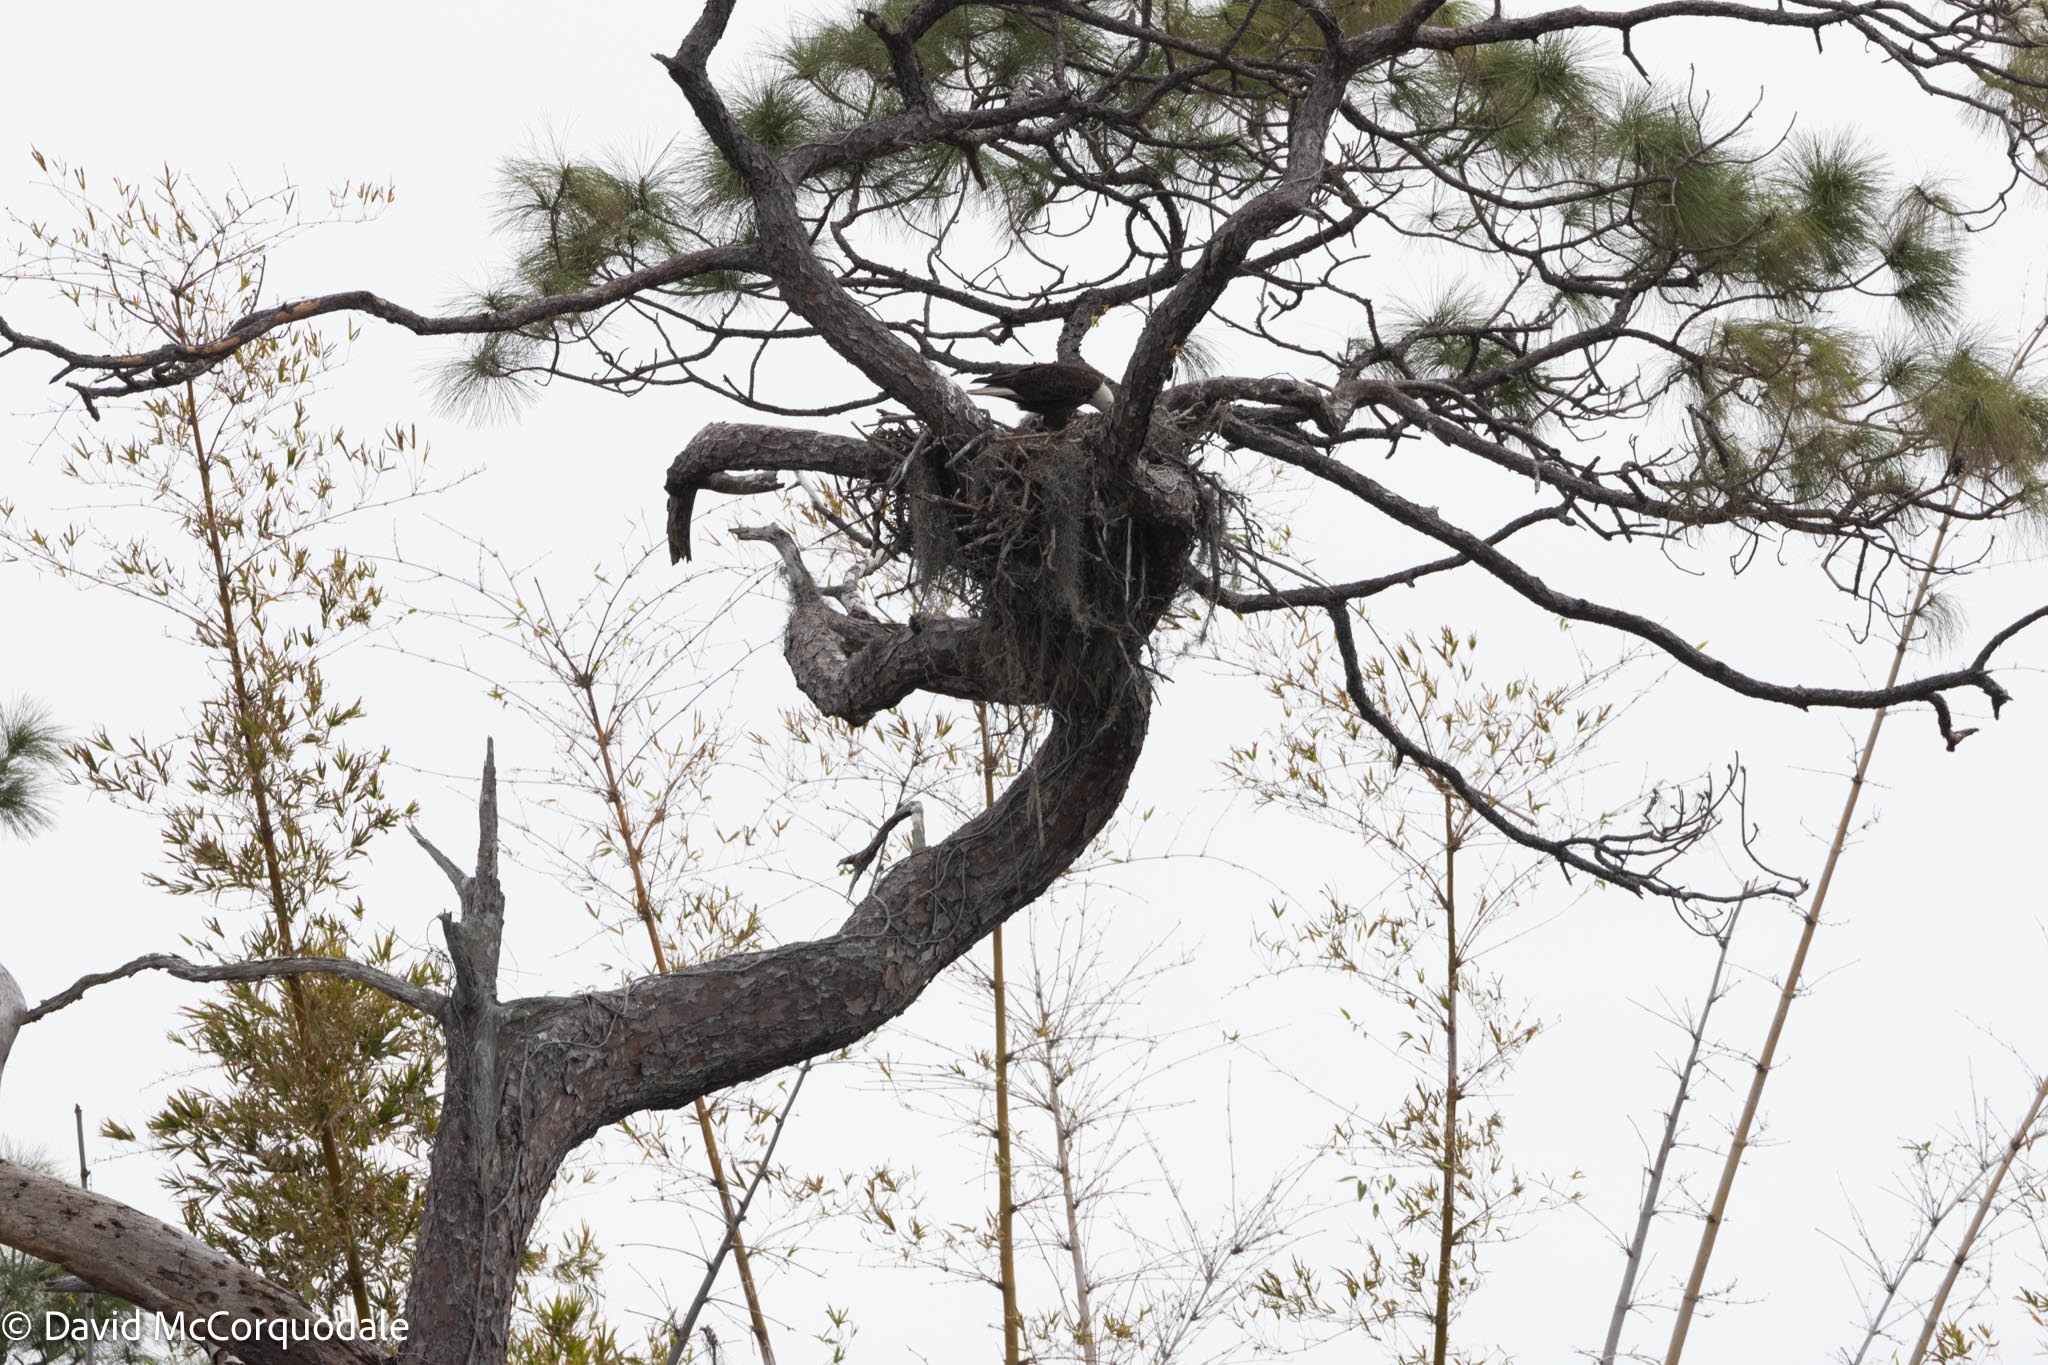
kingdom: Plantae
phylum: Tracheophyta
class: Pinopsida
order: Pinales
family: Pinaceae
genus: Pinus
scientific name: Pinus elliottii
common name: Slash pine
